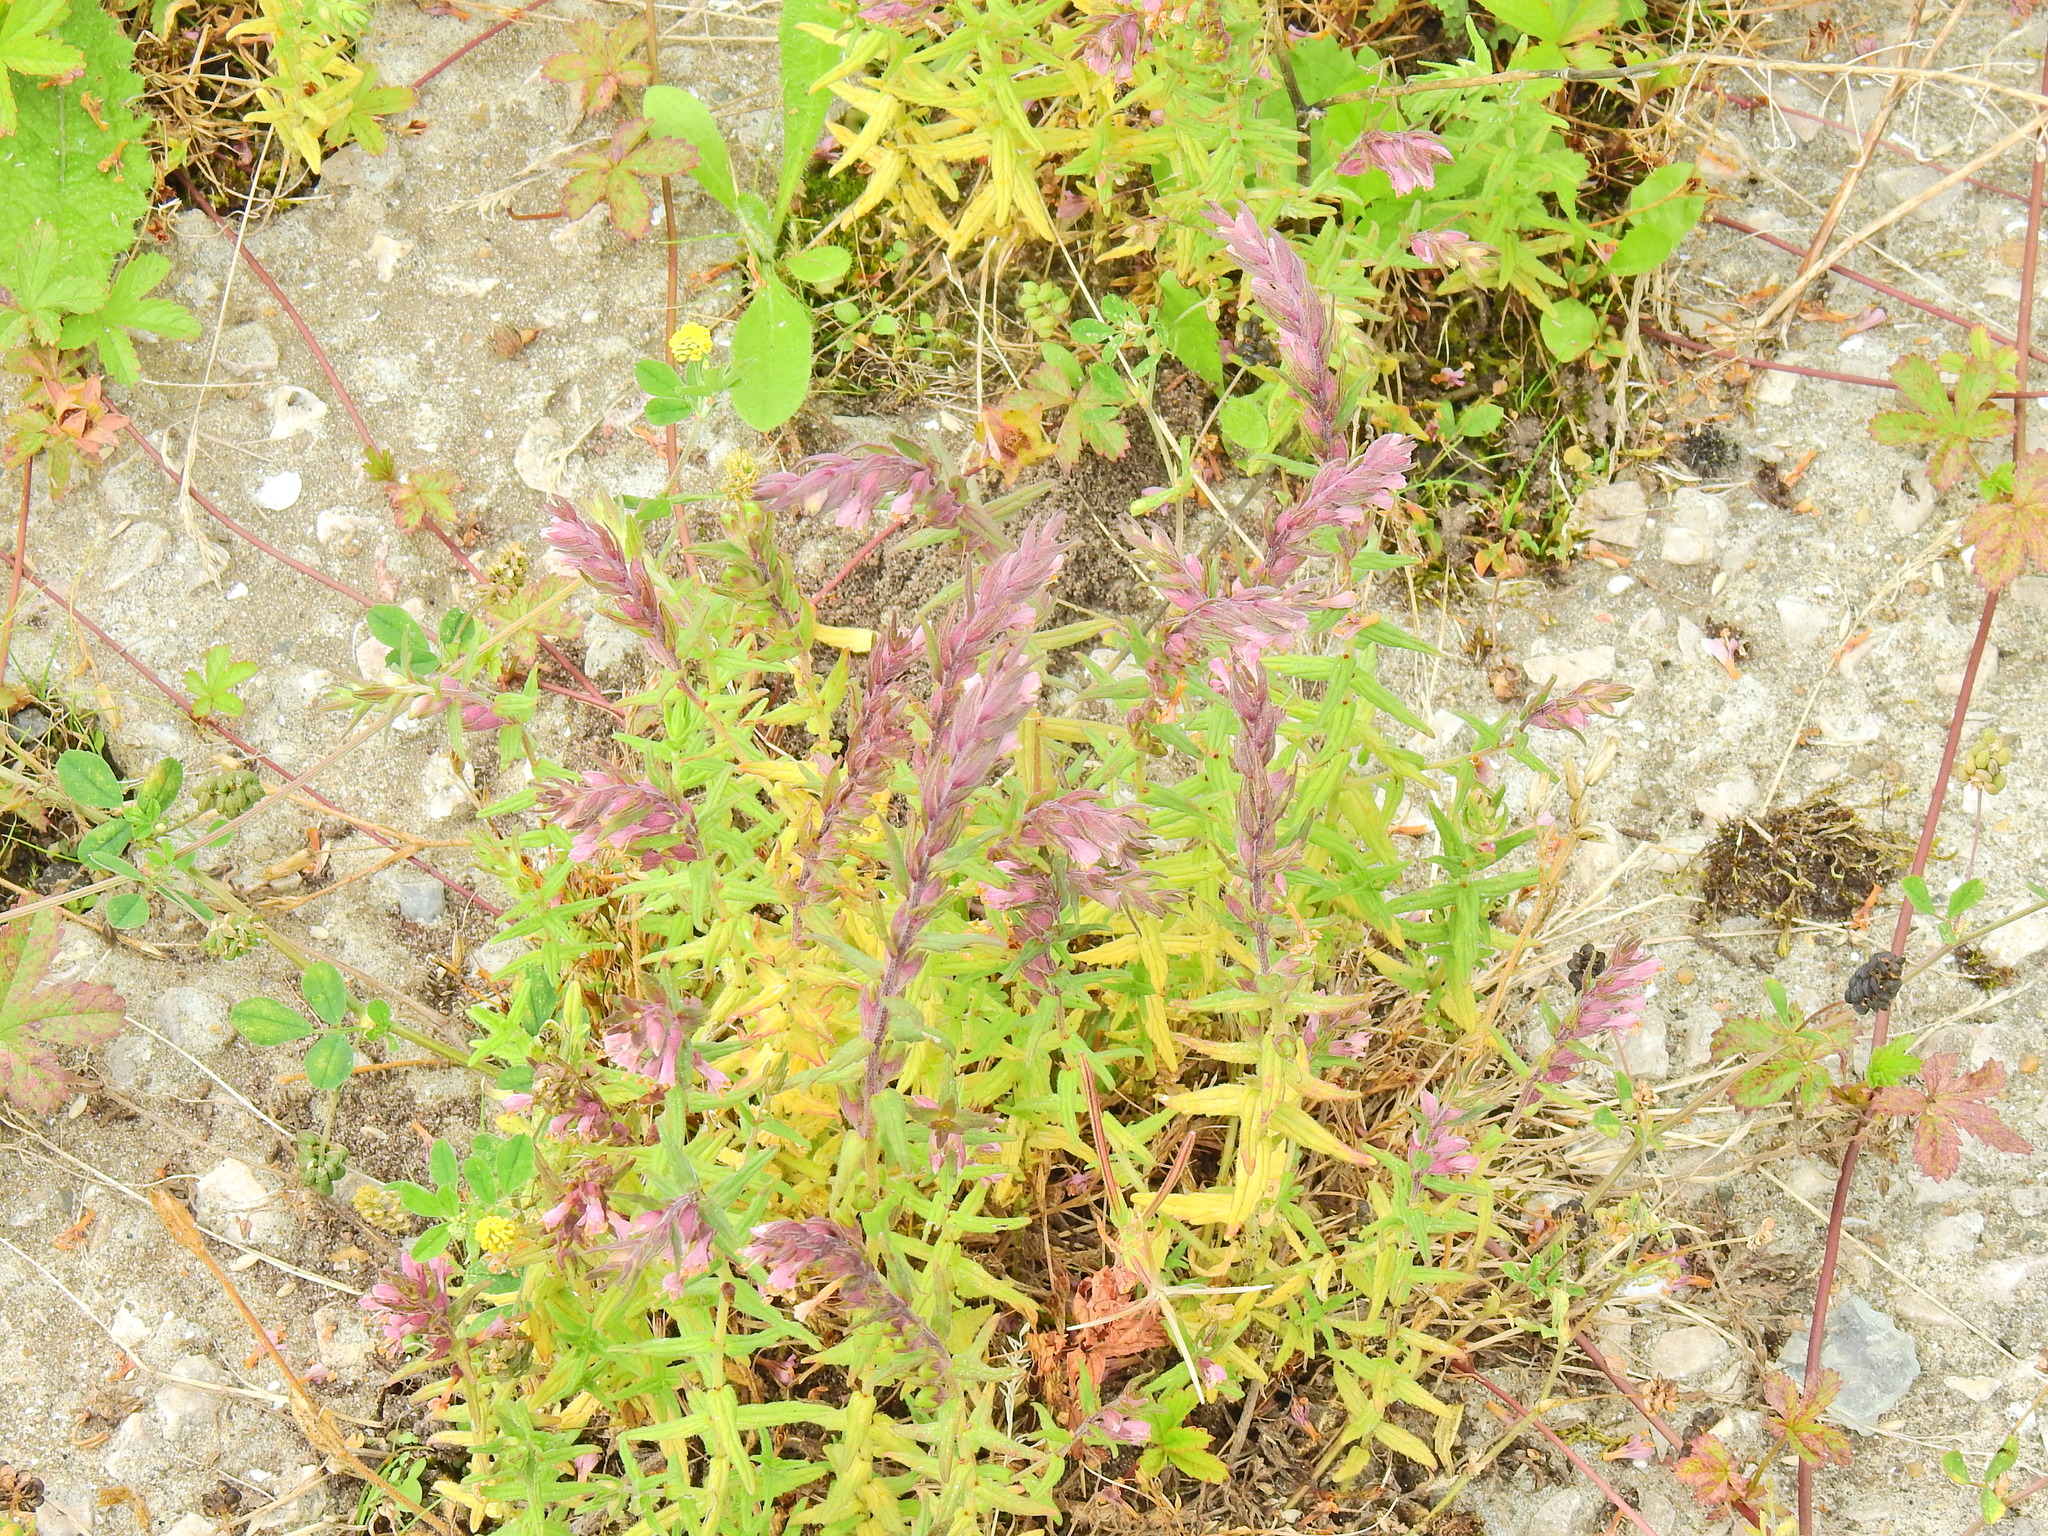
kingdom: Plantae
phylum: Tracheophyta
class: Magnoliopsida
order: Lamiales
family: Orobanchaceae
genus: Odontites
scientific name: Odontites vulgaris
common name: Broomrape
